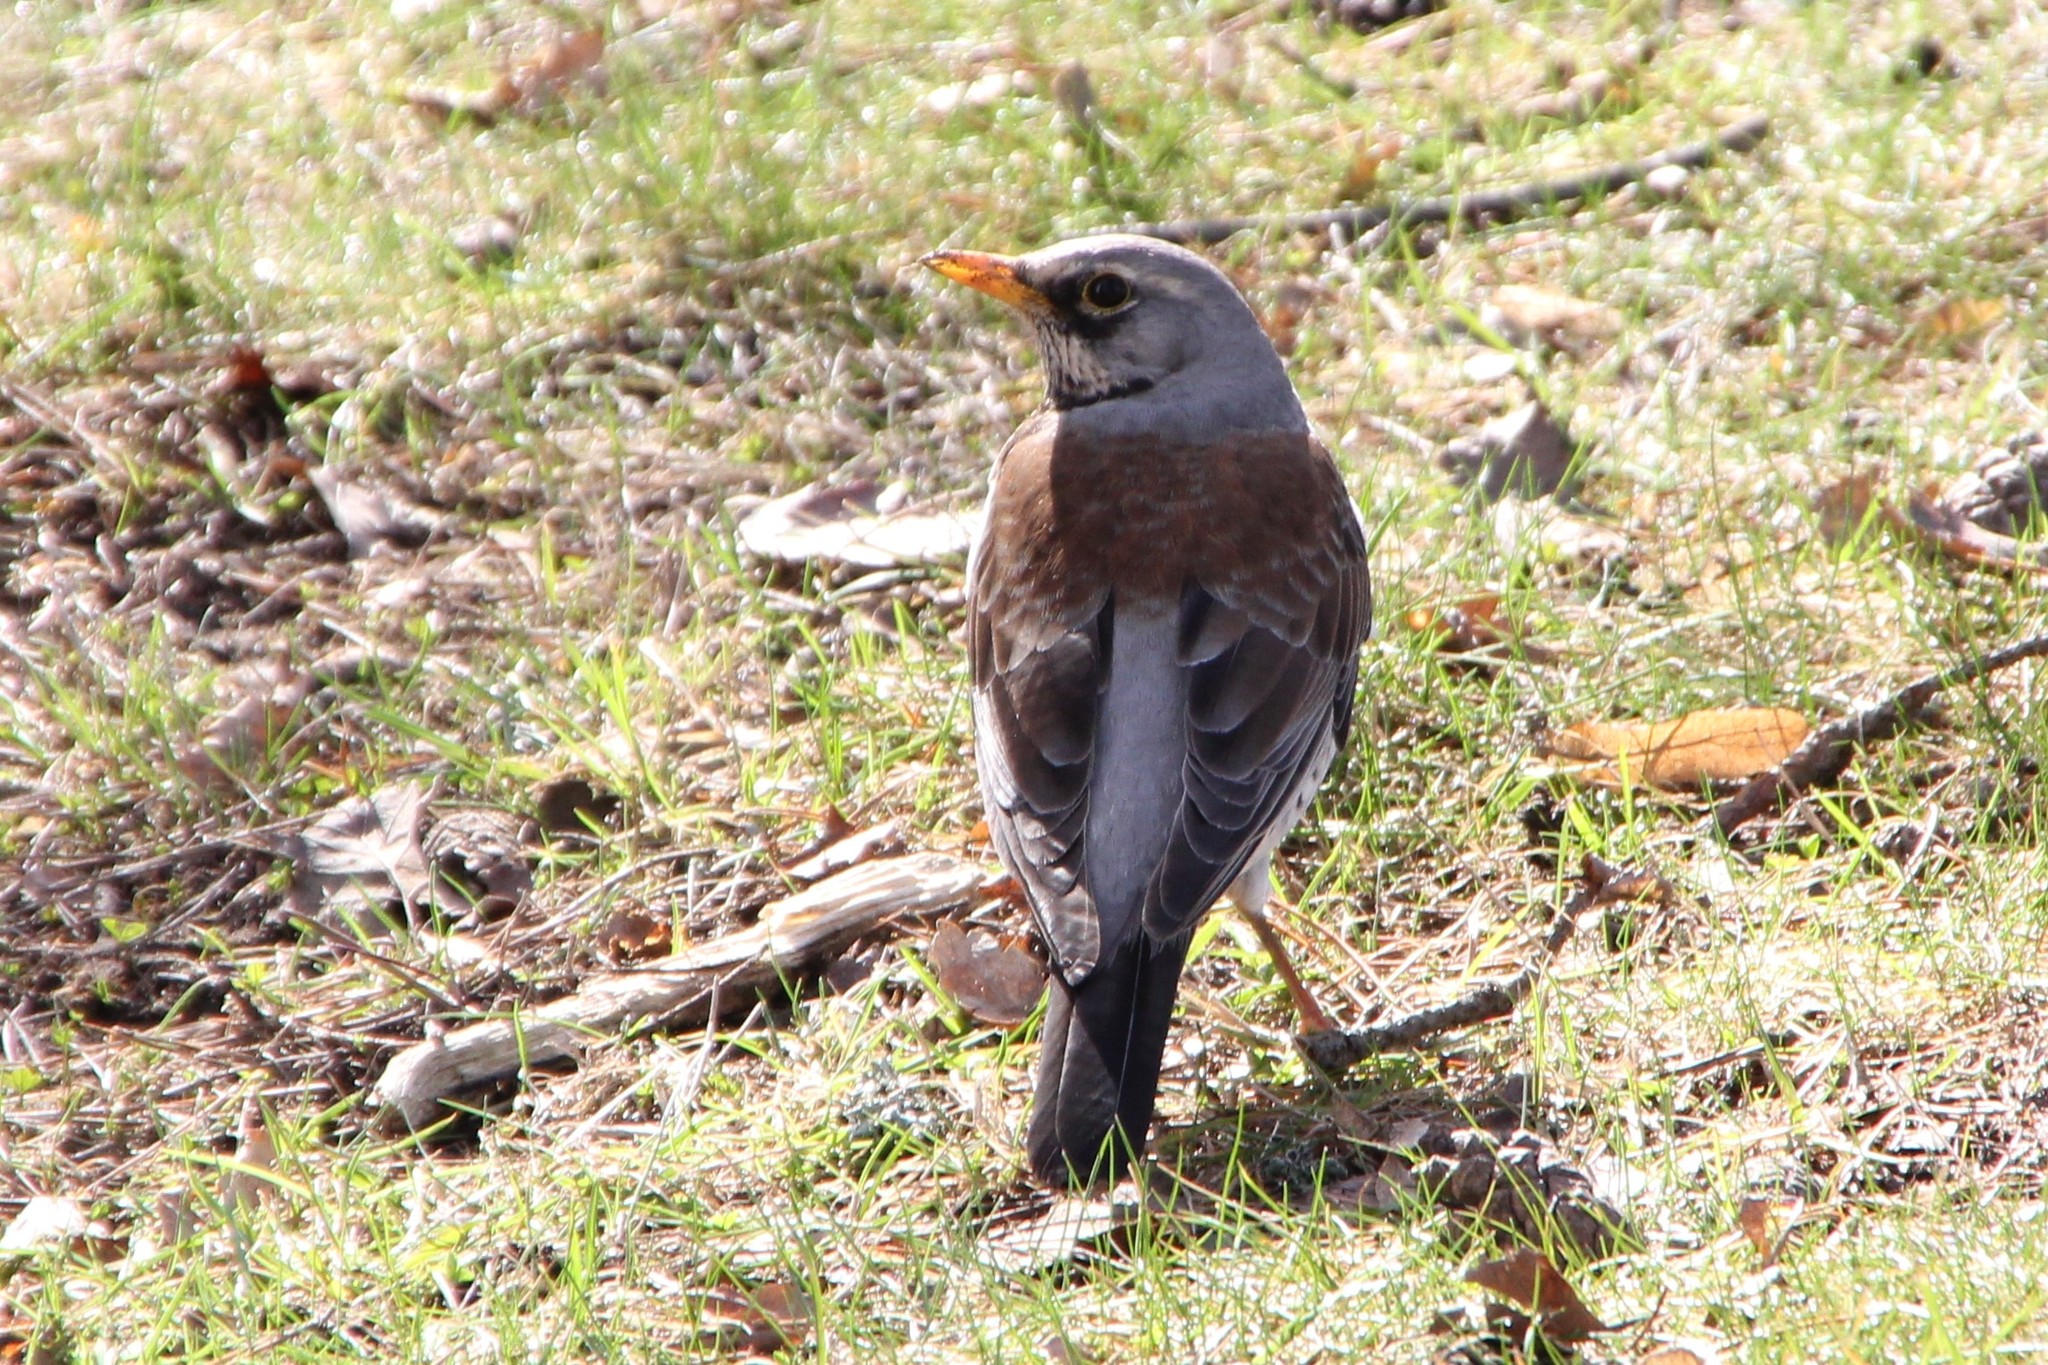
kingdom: Animalia
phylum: Chordata
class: Aves
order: Passeriformes
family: Turdidae
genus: Turdus
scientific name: Turdus pilaris
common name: Fieldfare
